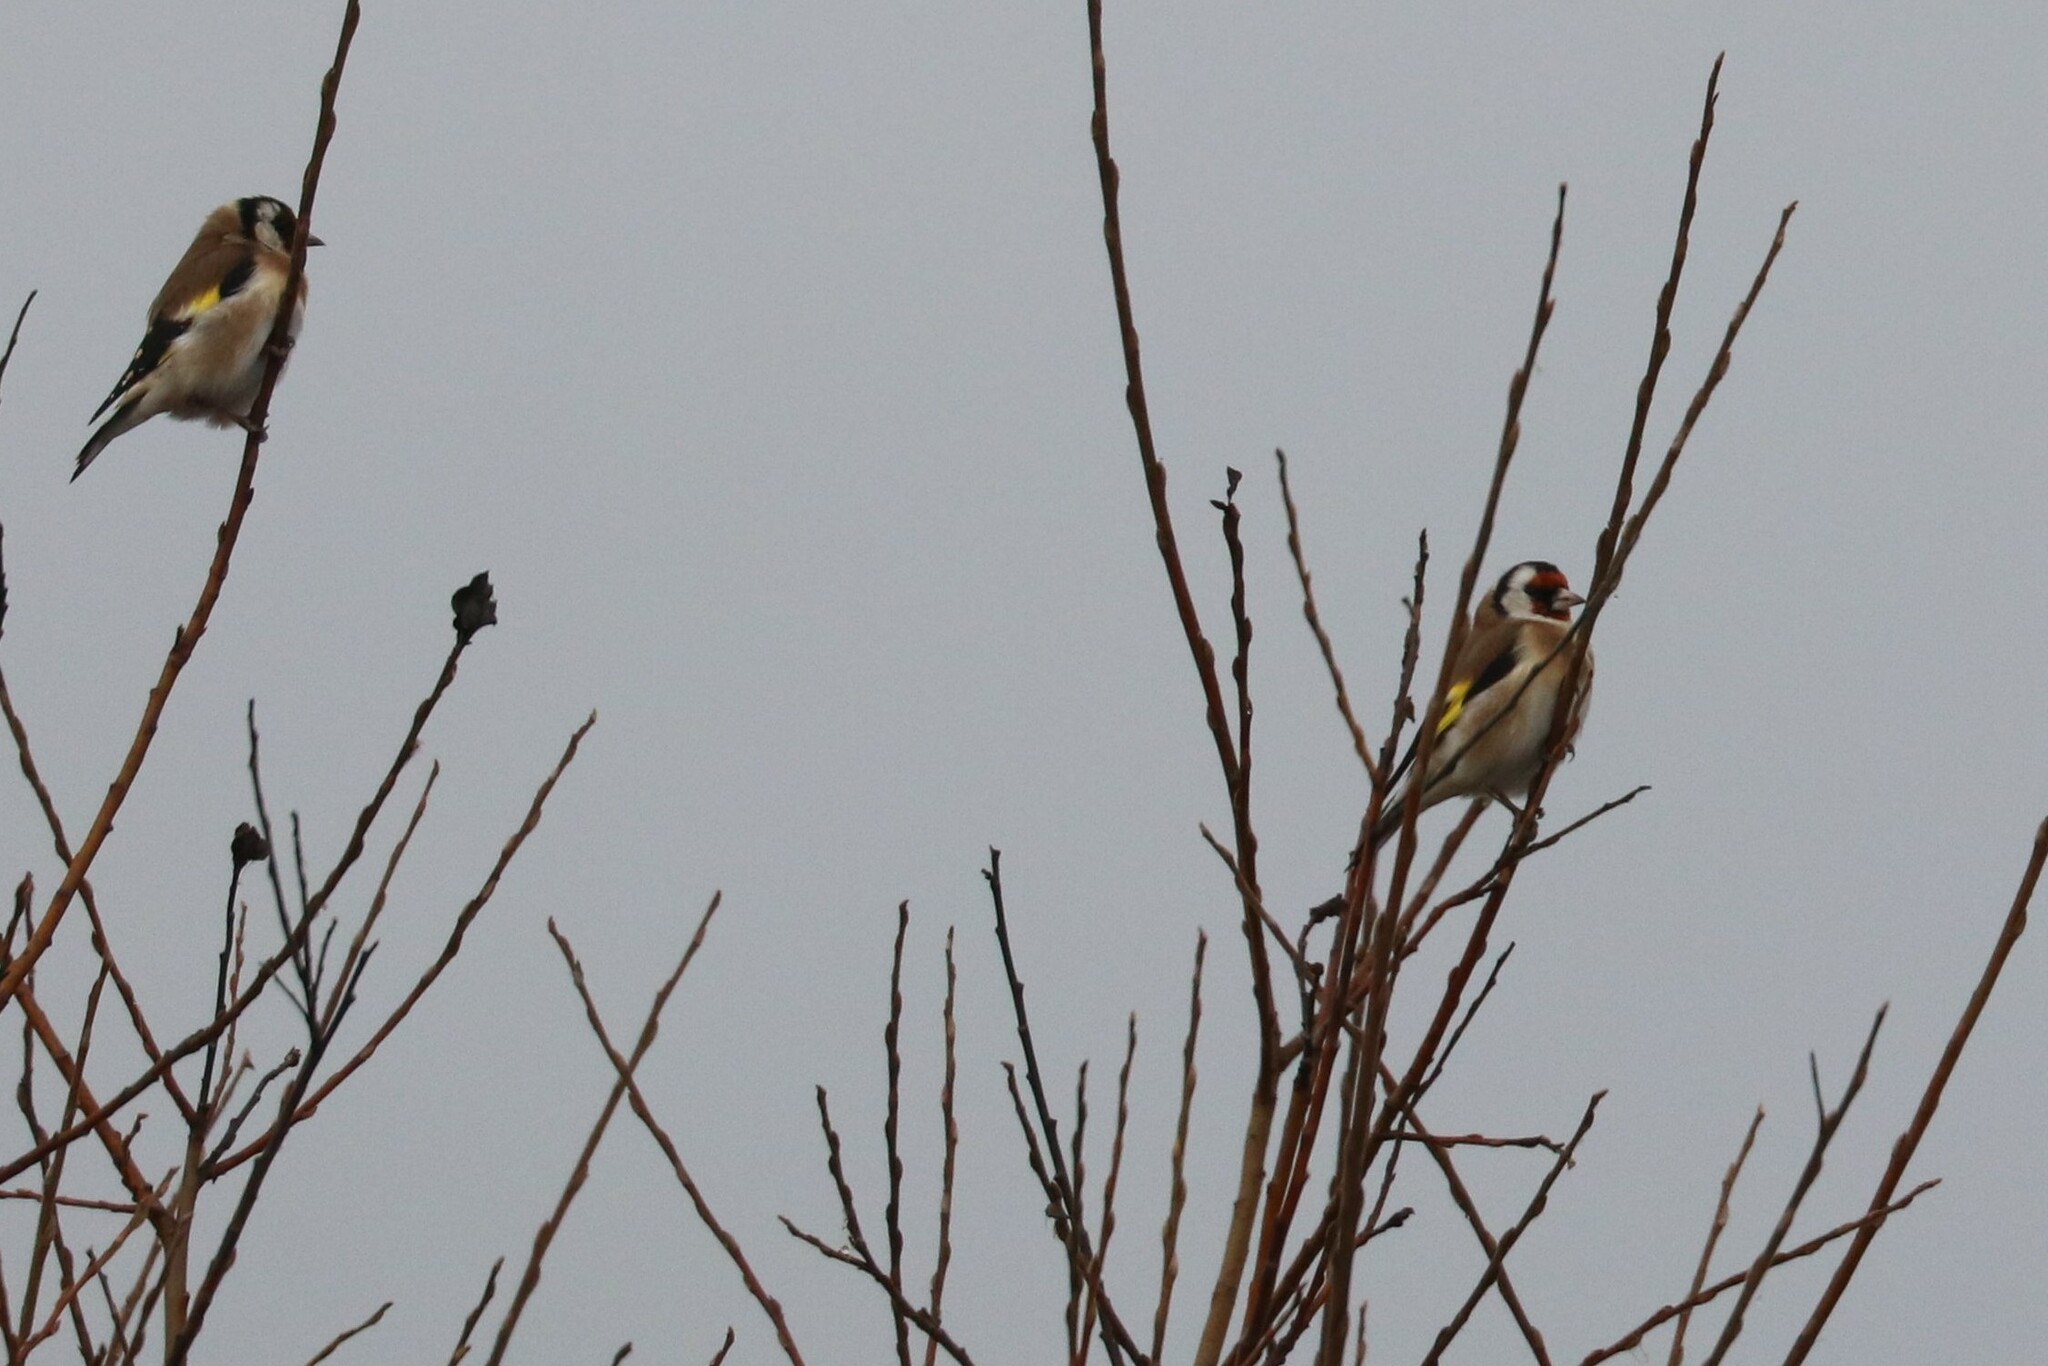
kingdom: Animalia
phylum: Chordata
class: Aves
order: Passeriformes
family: Fringillidae
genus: Carduelis
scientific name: Carduelis carduelis
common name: European goldfinch
